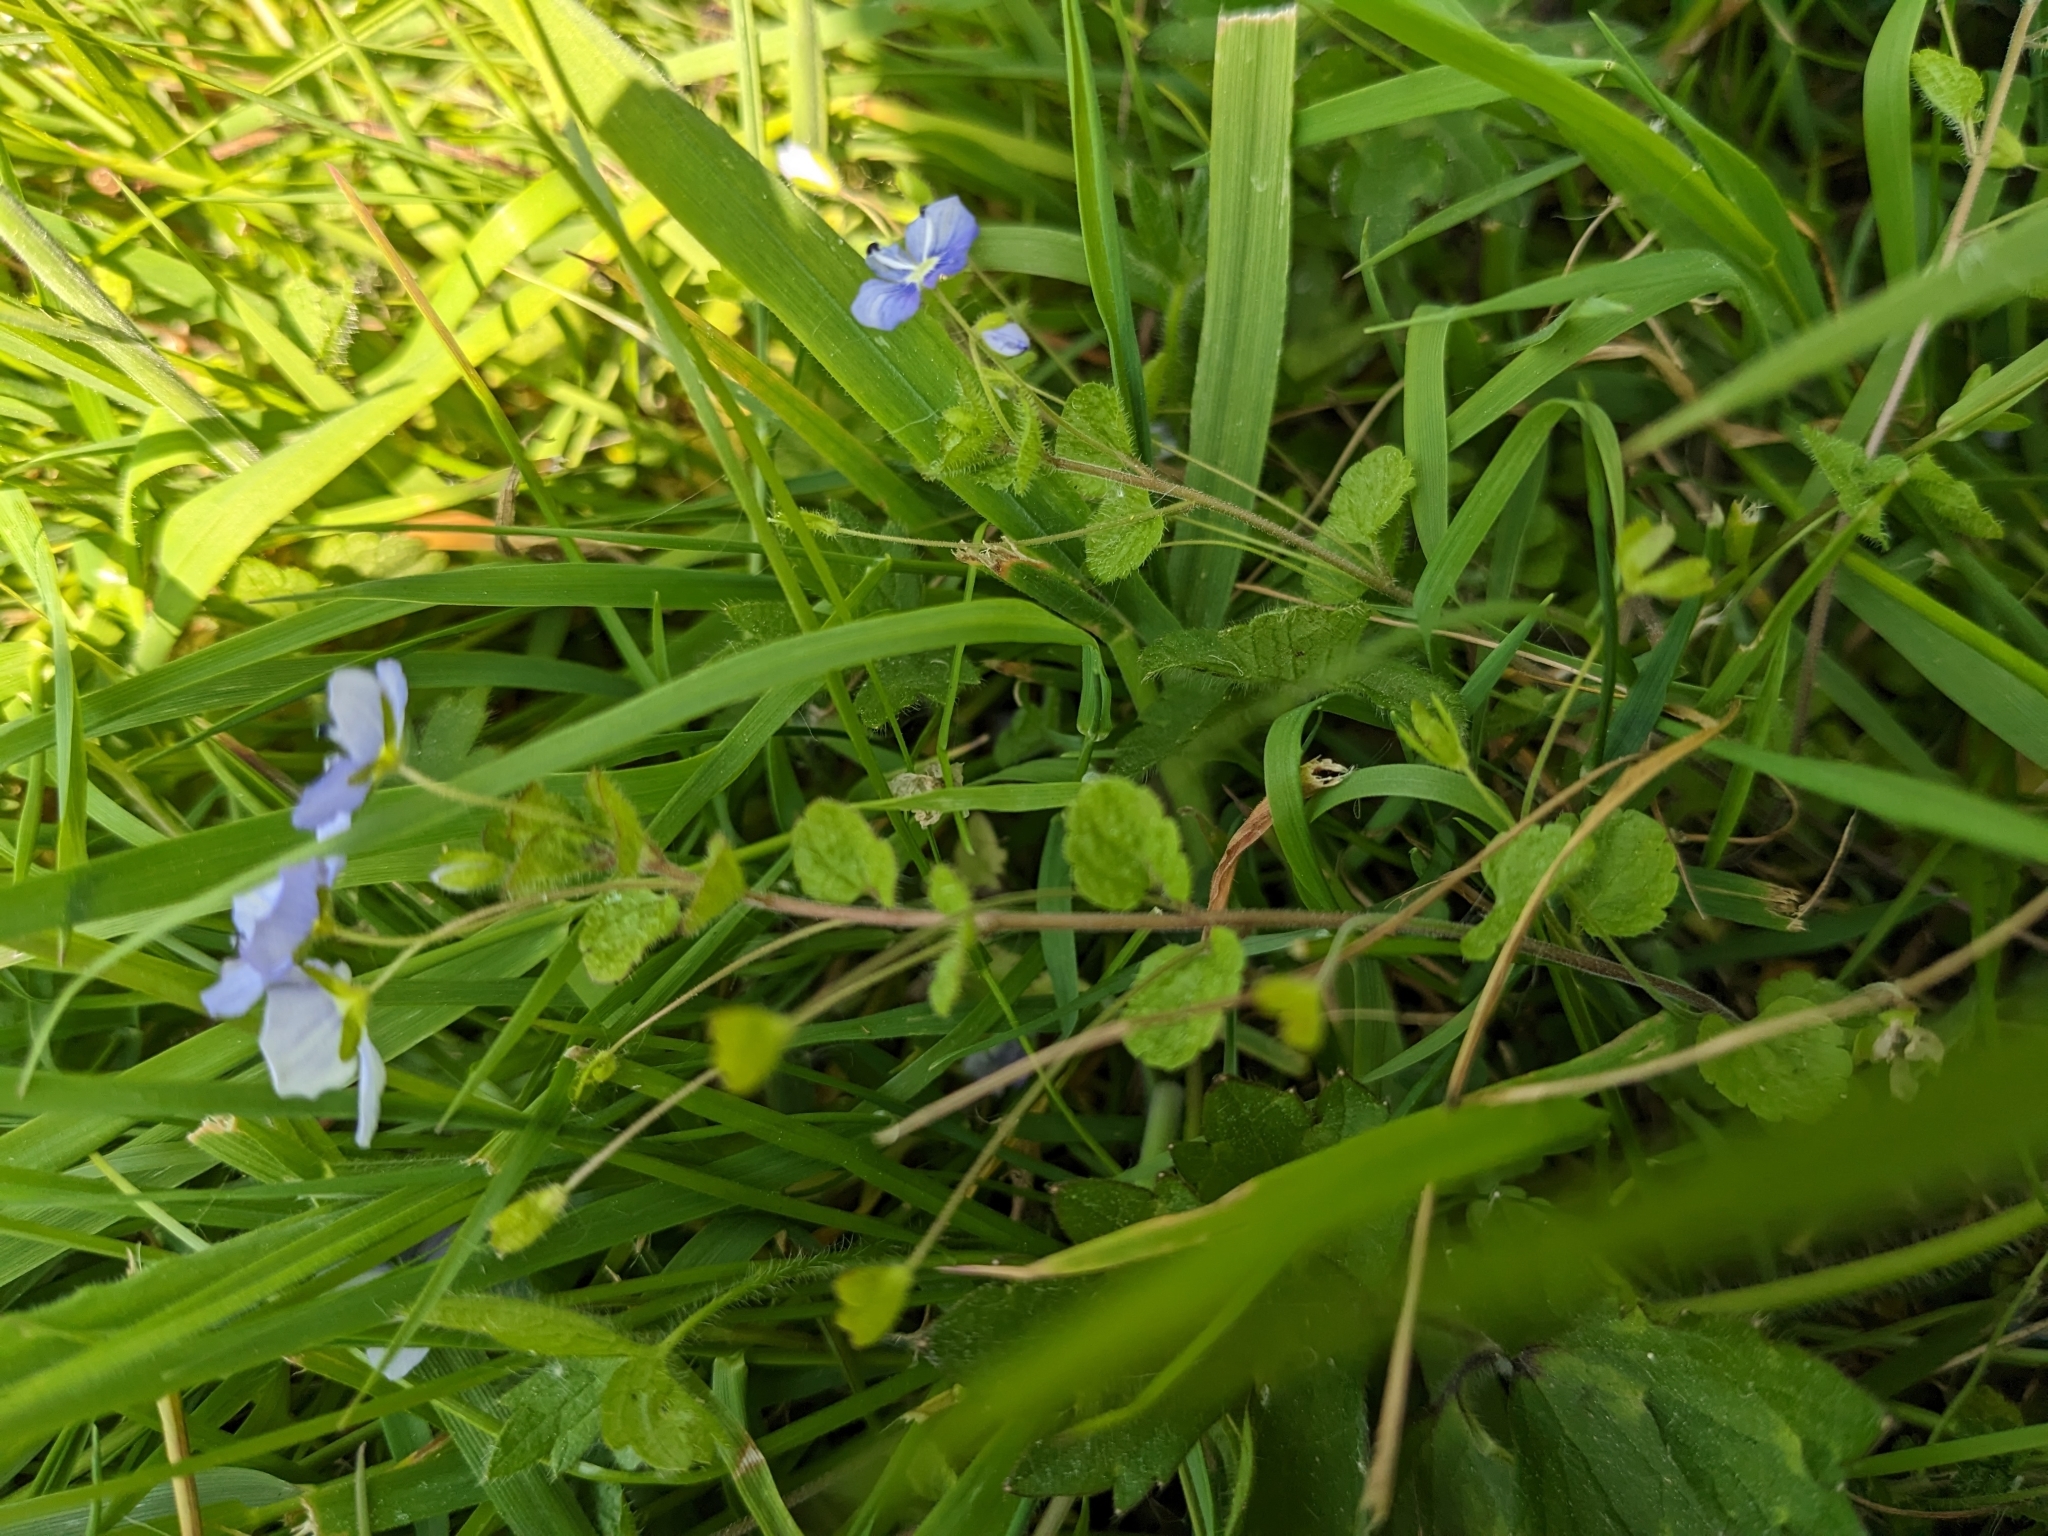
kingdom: Plantae
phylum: Tracheophyta
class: Magnoliopsida
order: Lamiales
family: Plantaginaceae
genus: Veronica
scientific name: Veronica filiformis
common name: Slender speedwell
